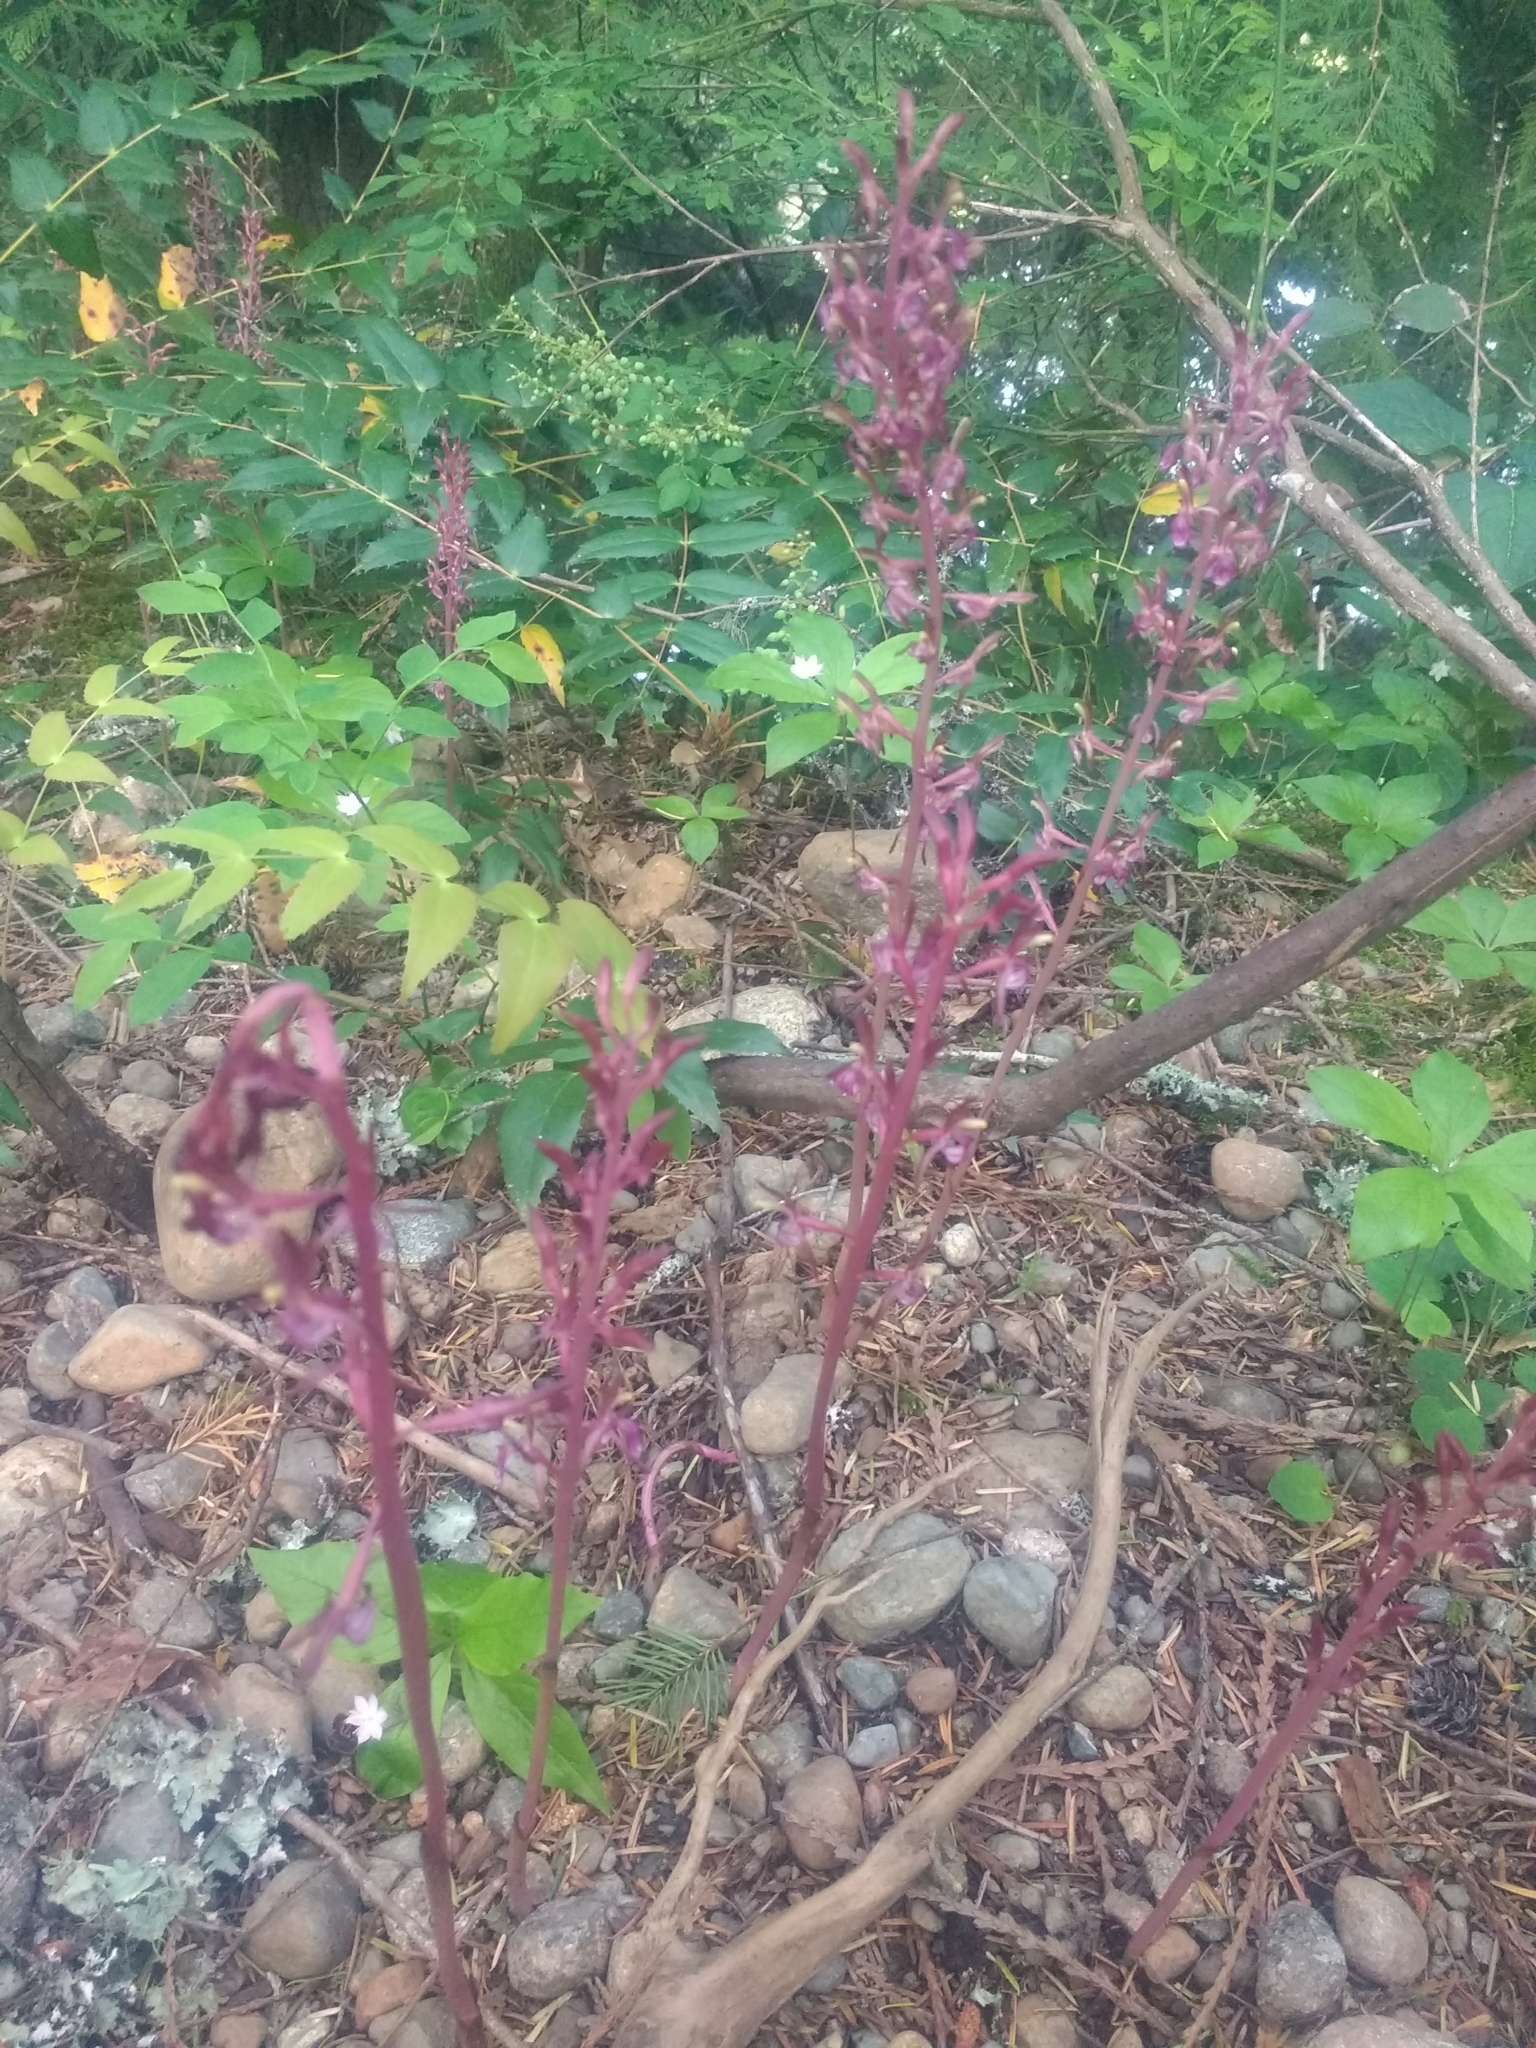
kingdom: Plantae
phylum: Tracheophyta
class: Liliopsida
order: Asparagales
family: Orchidaceae
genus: Corallorhiza
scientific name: Corallorhiza mertensiana
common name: Pacific coralroot
